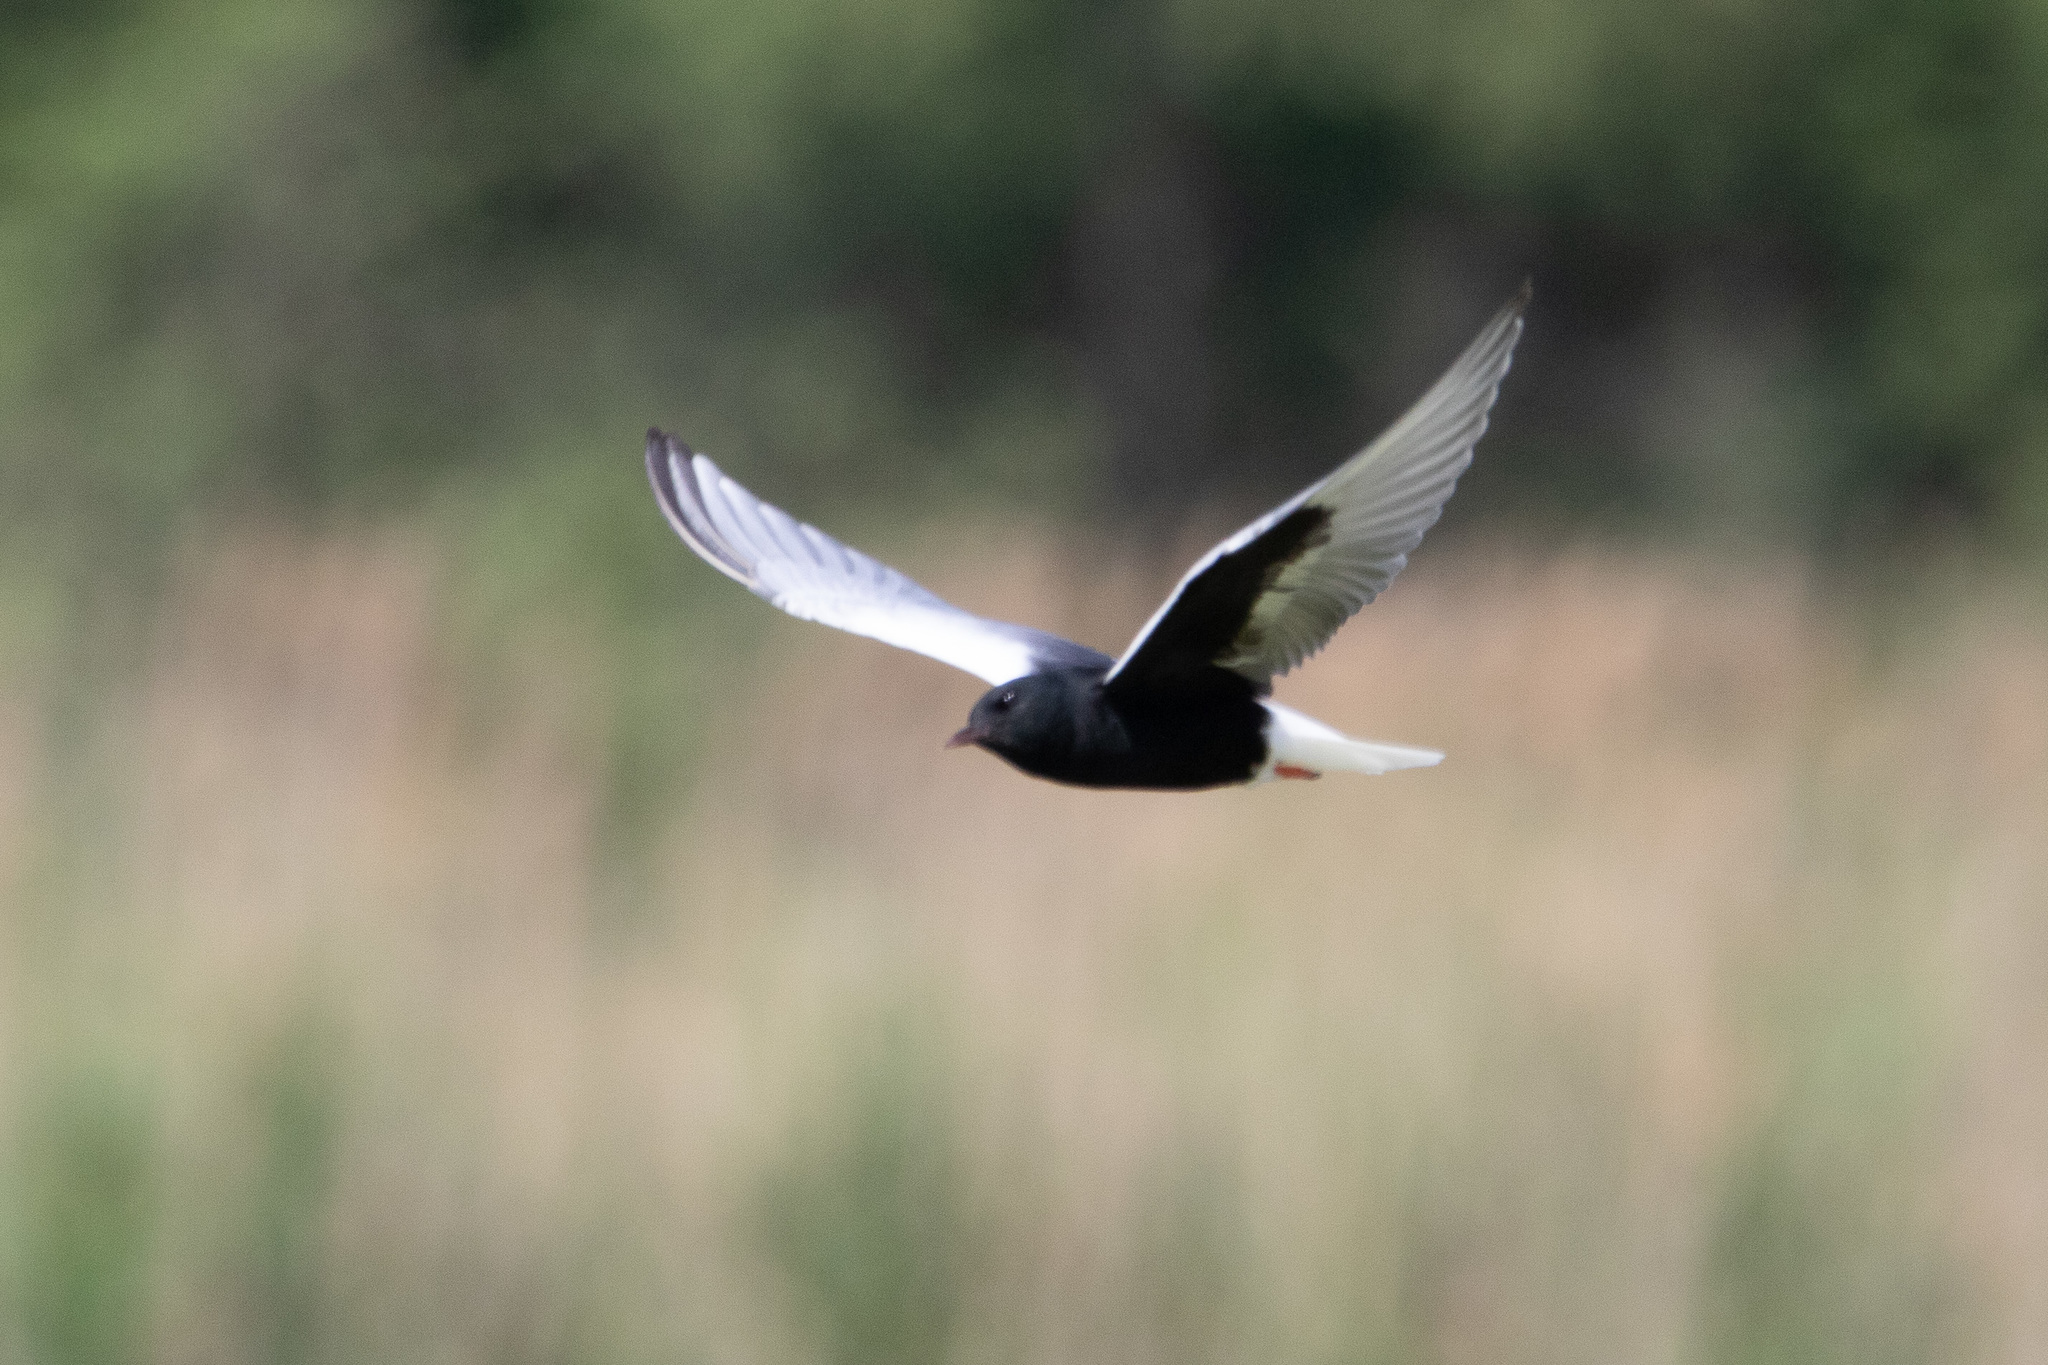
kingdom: Animalia
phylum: Chordata
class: Aves
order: Charadriiformes
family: Laridae
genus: Chlidonias
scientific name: Chlidonias leucopterus
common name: White-winged tern
